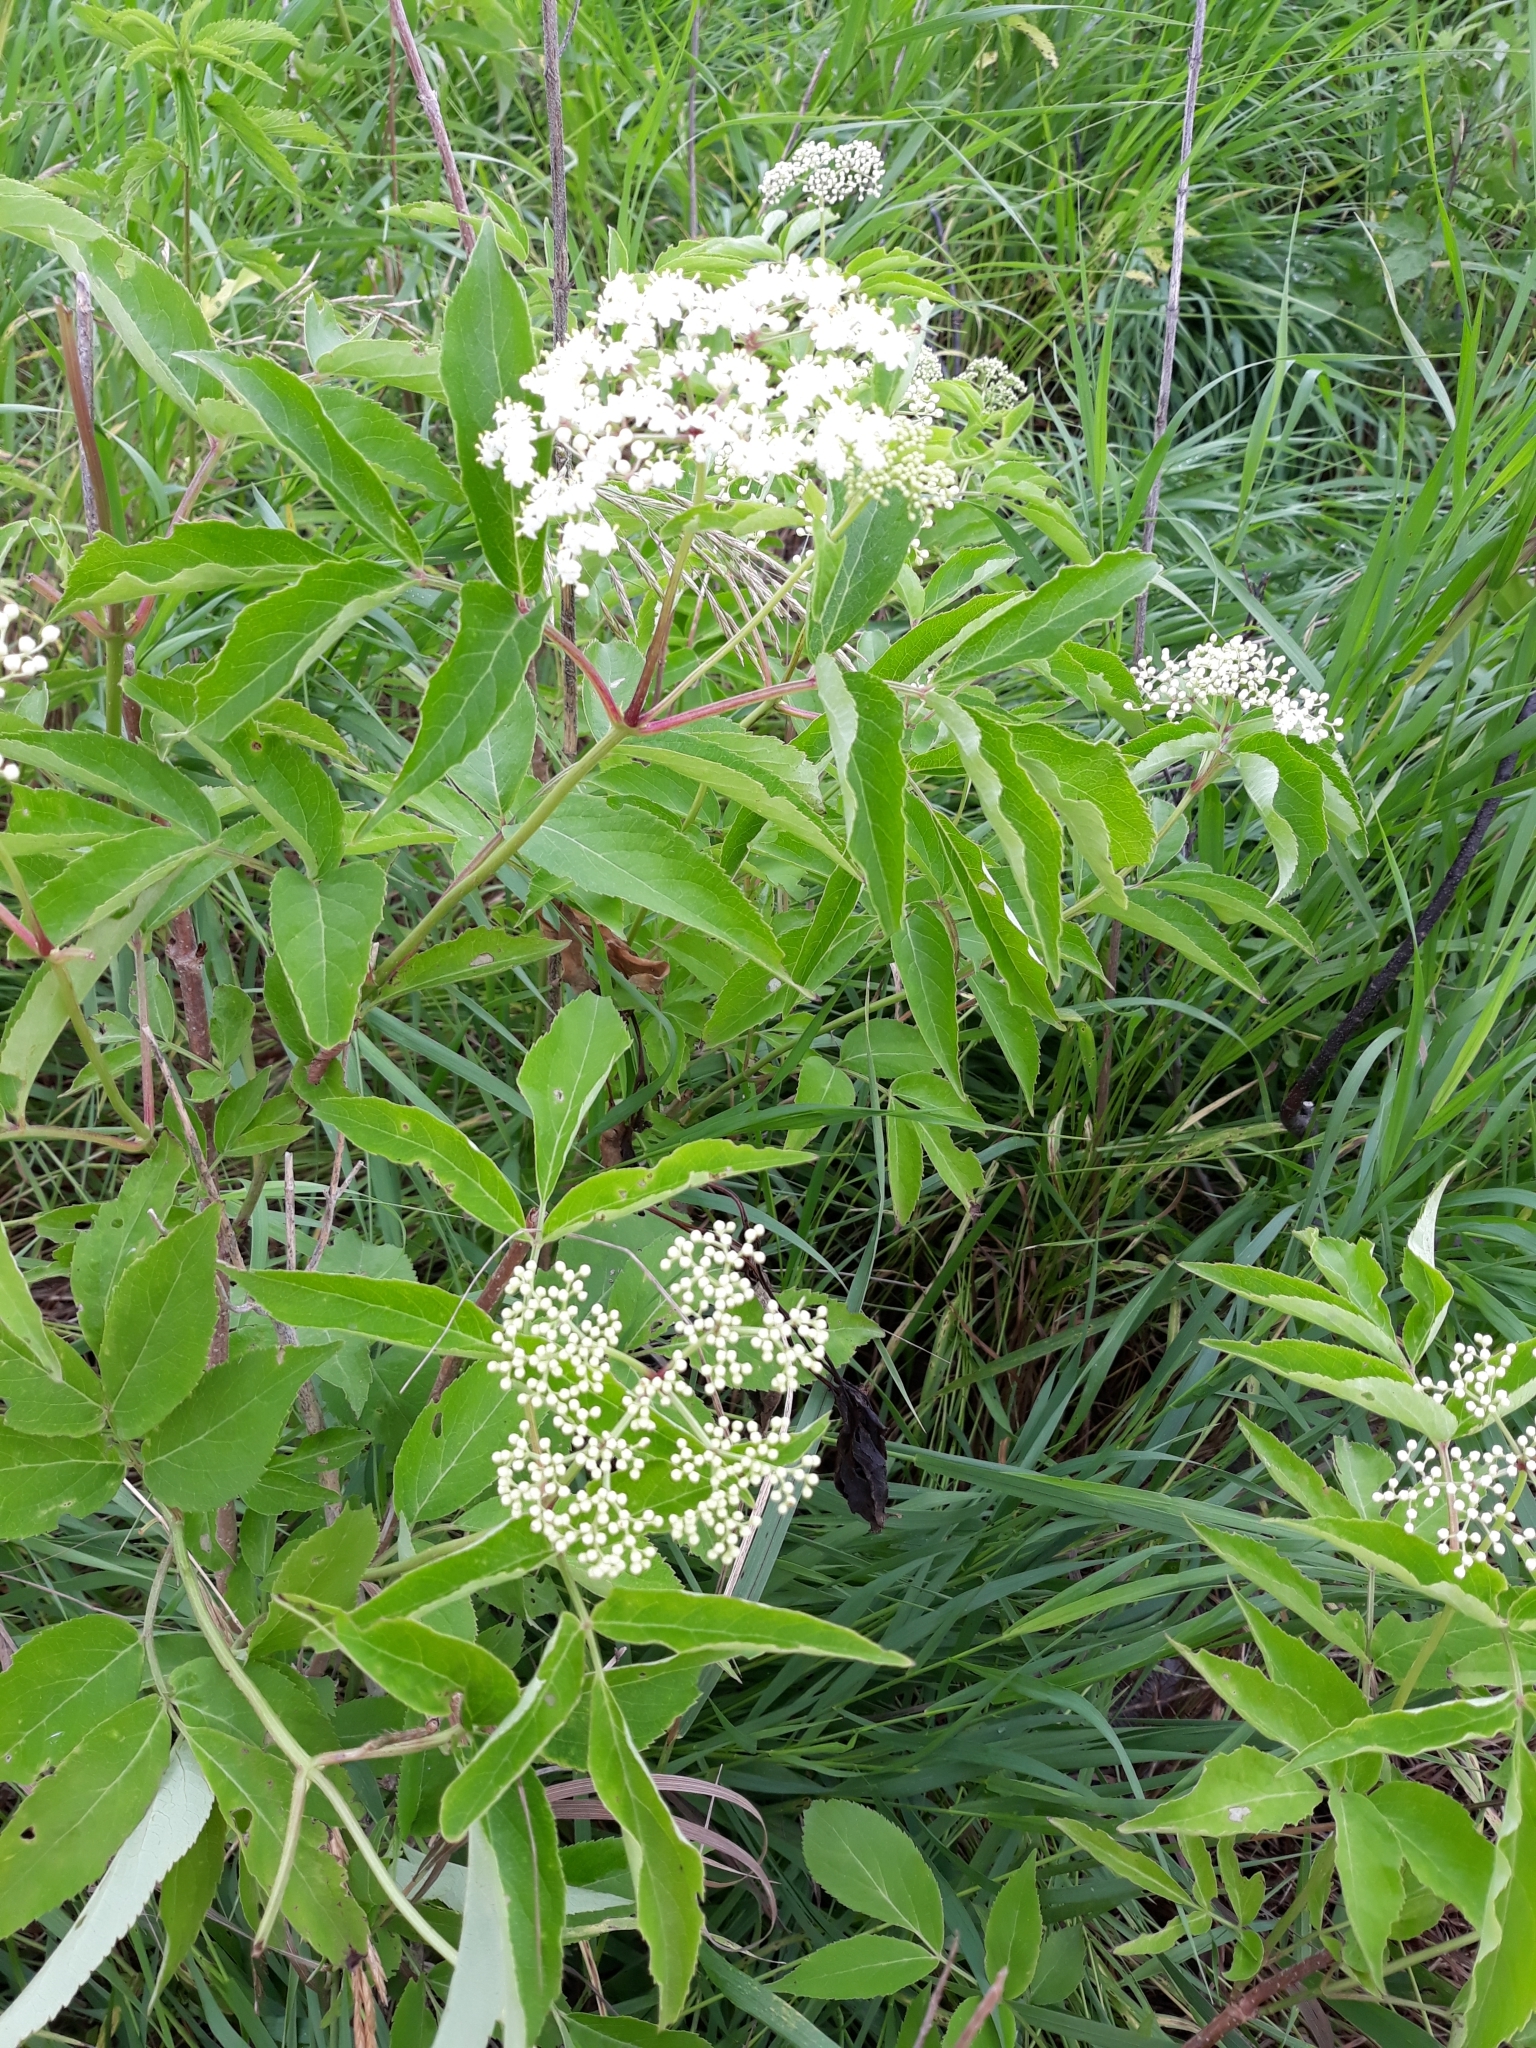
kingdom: Plantae
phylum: Tracheophyta
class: Magnoliopsida
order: Dipsacales
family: Viburnaceae
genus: Sambucus
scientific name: Sambucus canadensis
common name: American elder
